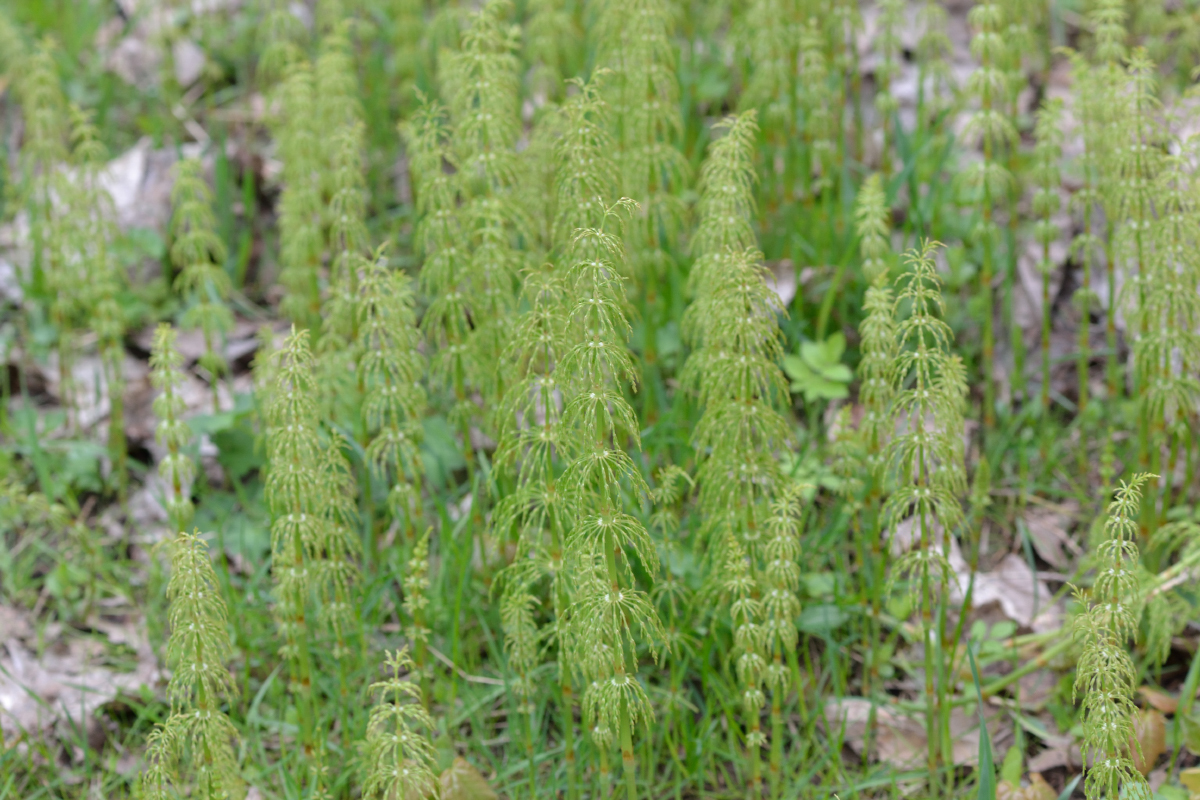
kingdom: Plantae
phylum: Tracheophyta
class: Polypodiopsida
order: Equisetales
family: Equisetaceae
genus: Equisetum
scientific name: Equisetum sylvaticum
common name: Wood horsetail
